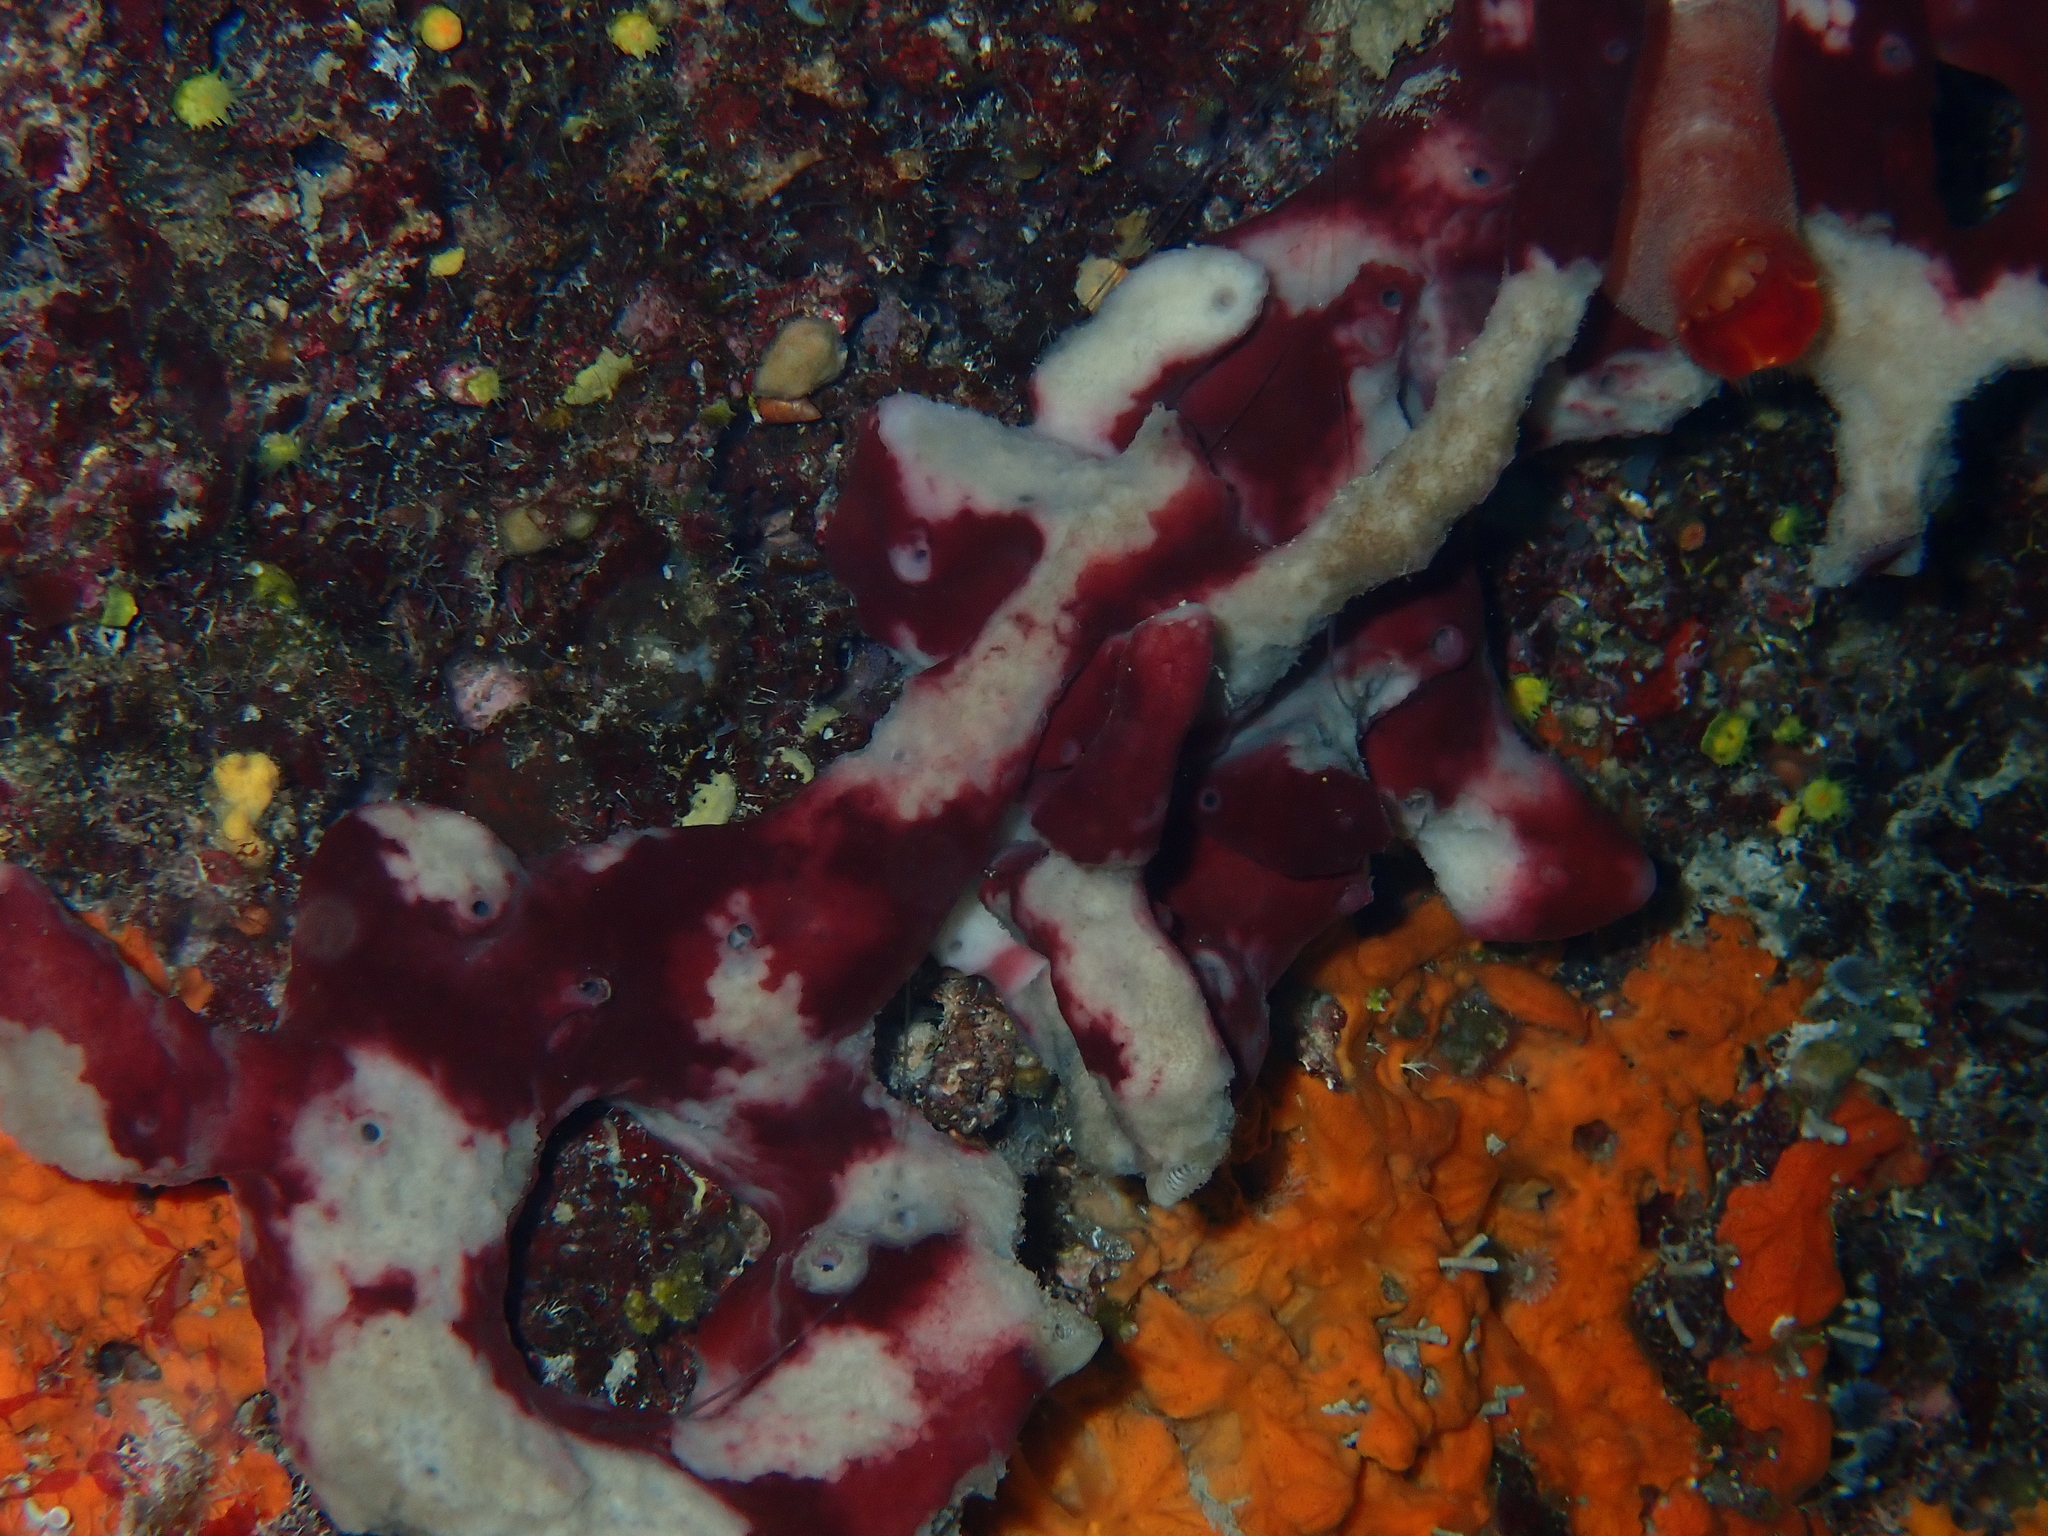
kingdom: Animalia
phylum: Porifera
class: Demospongiae
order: Haplosclerida
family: Petrosiidae
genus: Petrosia
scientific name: Petrosia ficiformis
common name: Stony sponge
